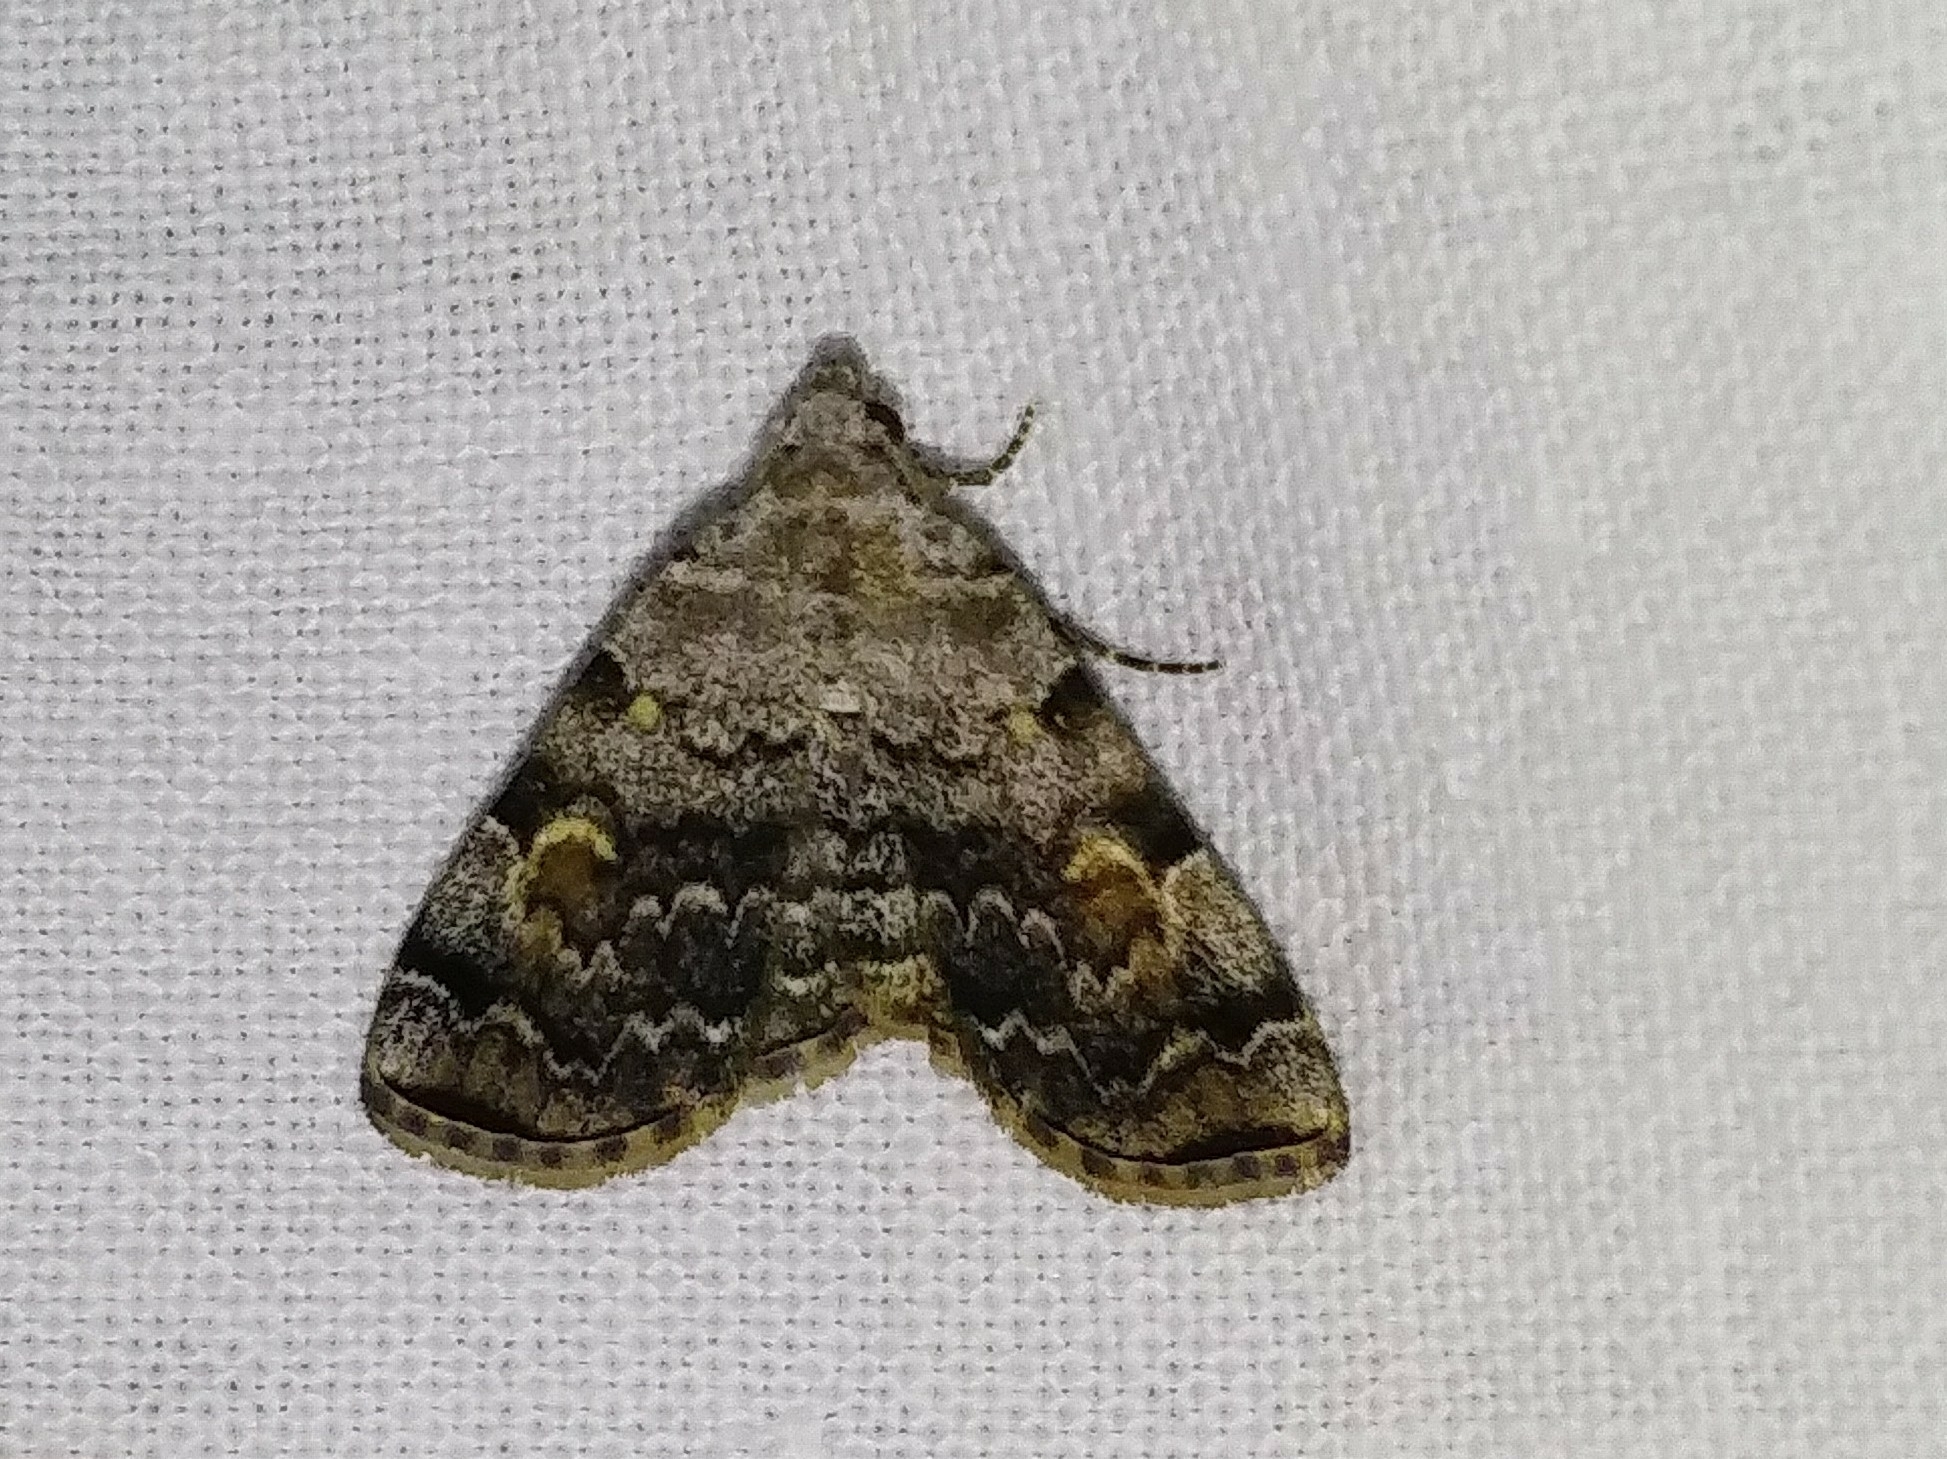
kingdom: Animalia
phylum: Arthropoda
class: Insecta
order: Lepidoptera
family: Erebidae
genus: Idia
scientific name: Idia americalis
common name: American idia moth
